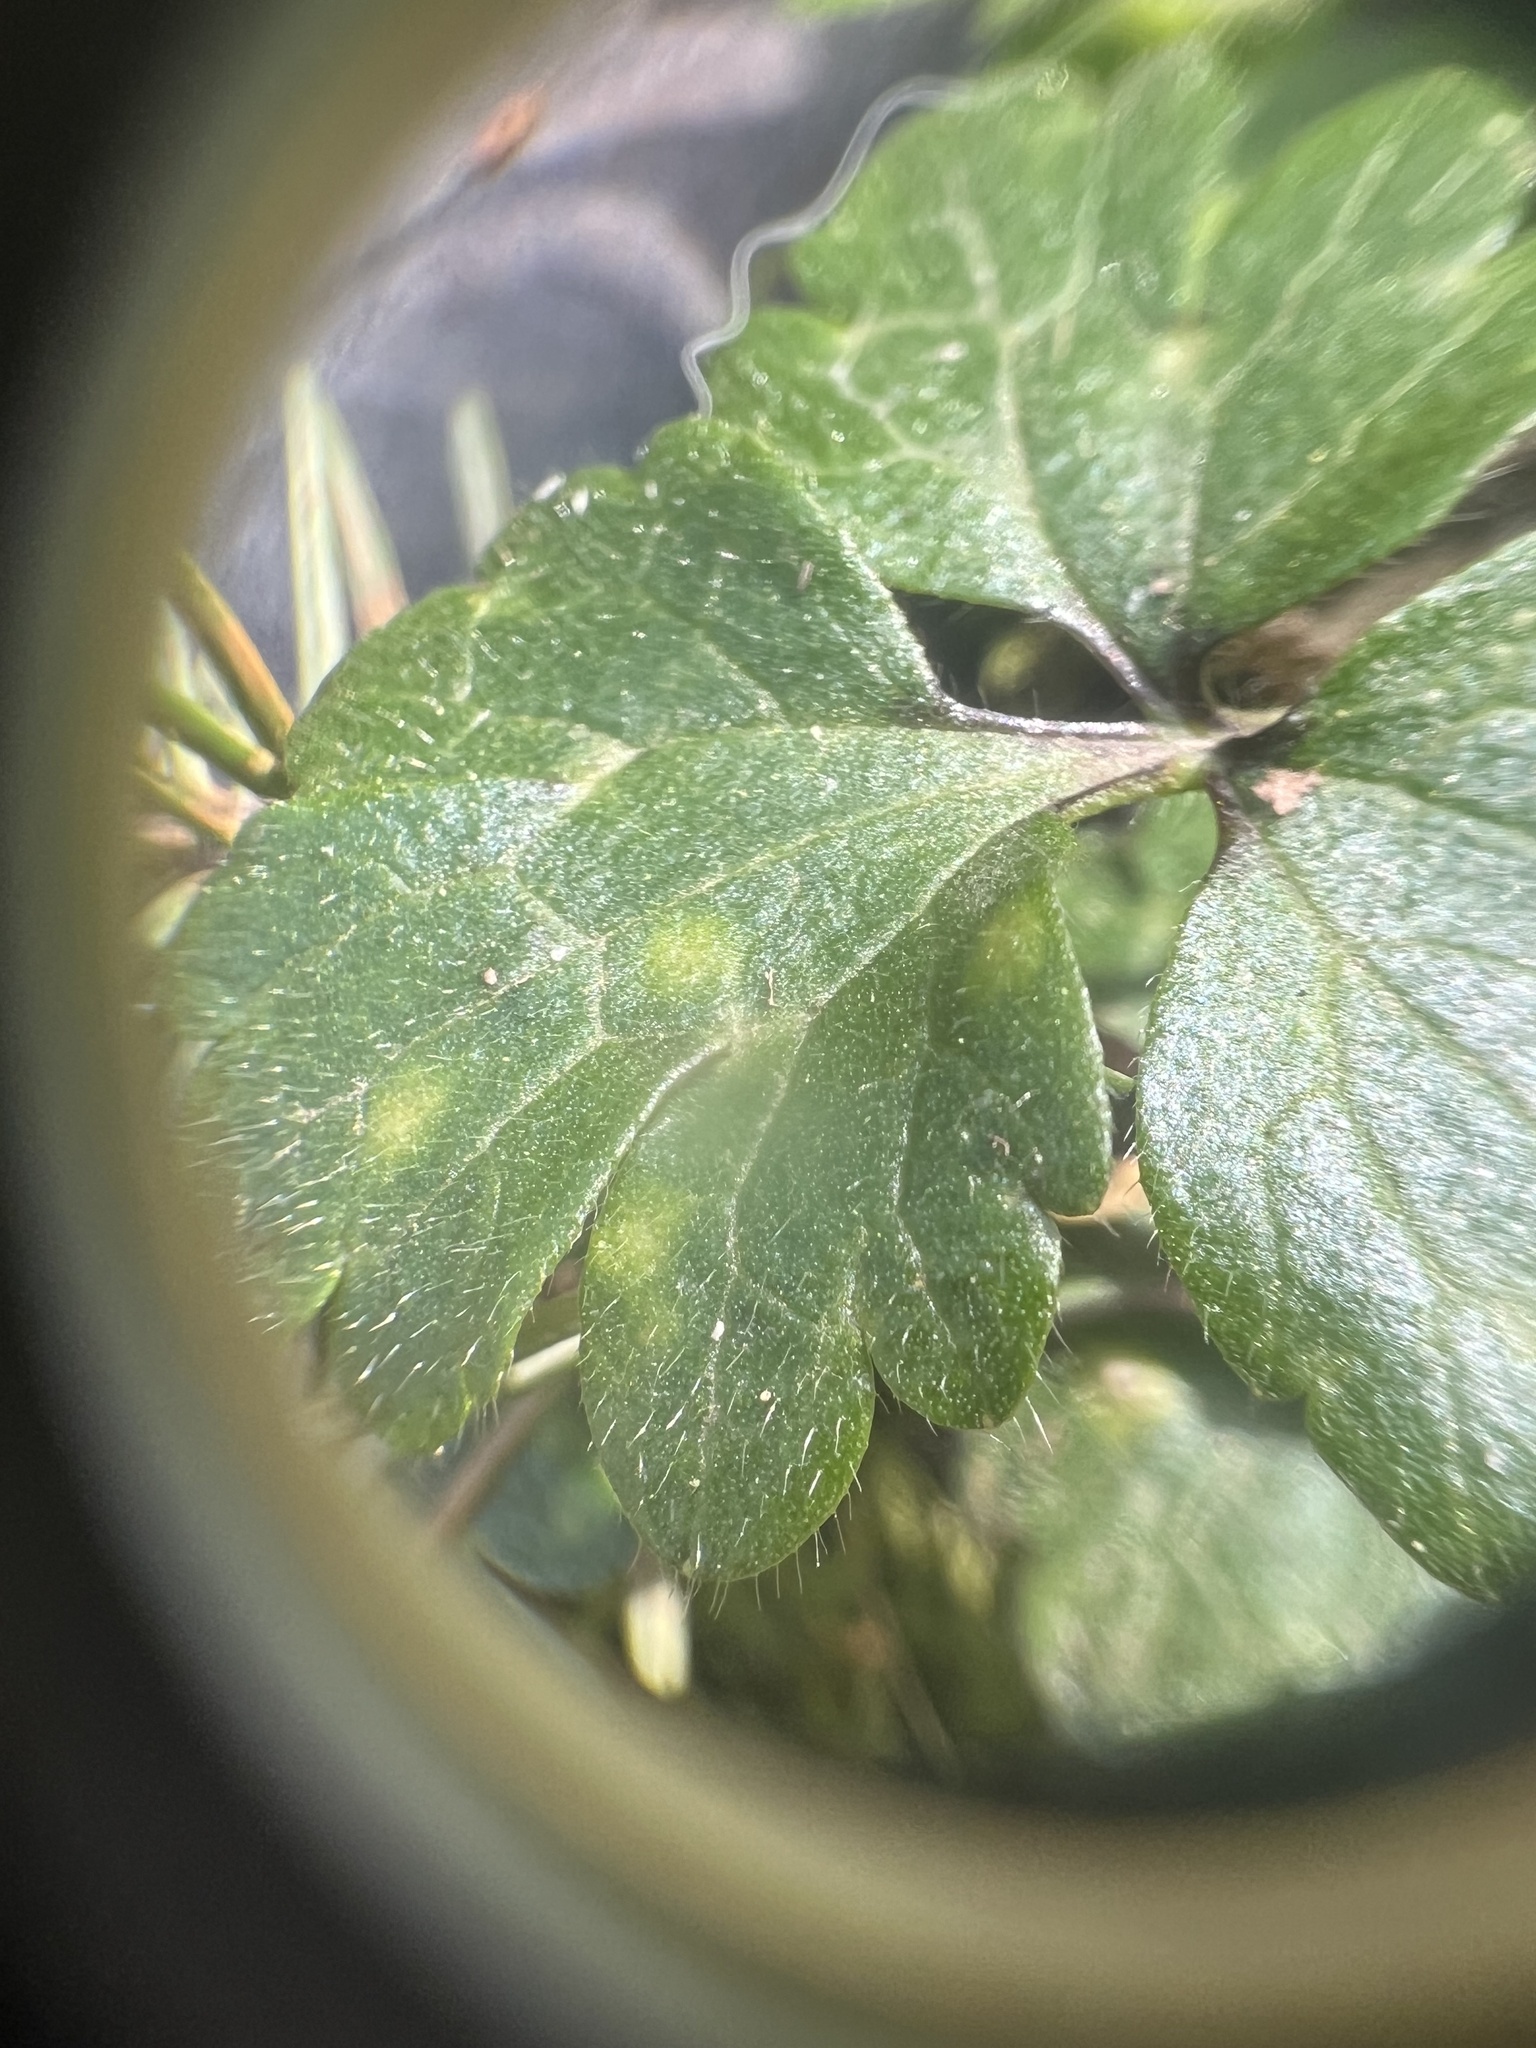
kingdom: Plantae
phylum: Tracheophyta
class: Magnoliopsida
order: Ranunculales
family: Ranunculaceae
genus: Ranunculus
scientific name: Ranunculus repens
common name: Creeping buttercup
